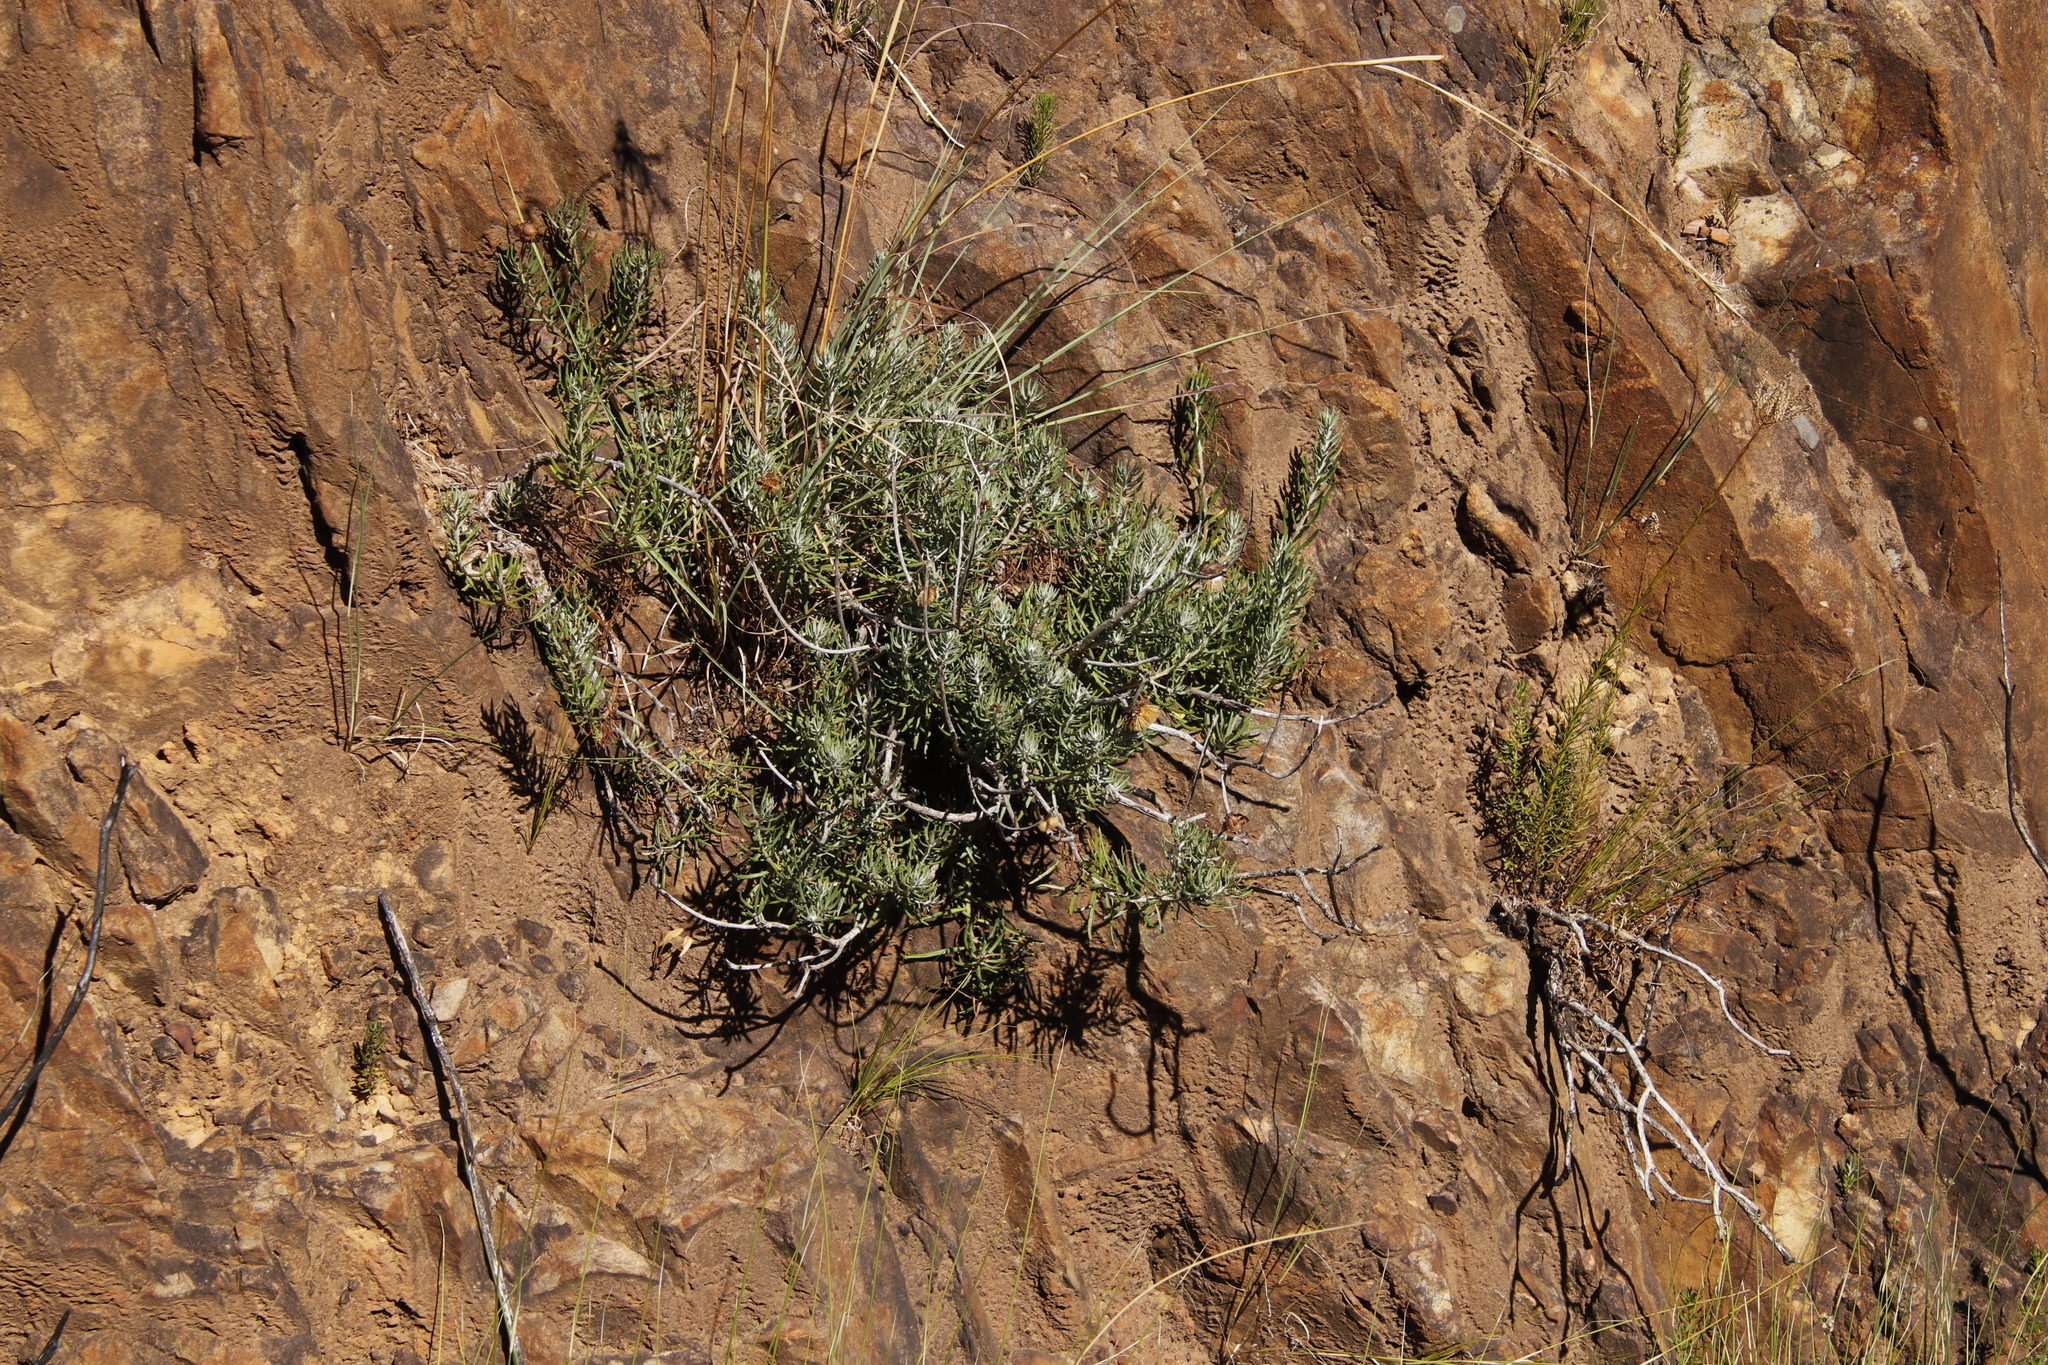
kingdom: Plantae
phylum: Tracheophyta
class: Magnoliopsida
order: Asterales
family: Asteraceae
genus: Heterolepis
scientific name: Heterolepis aliena
